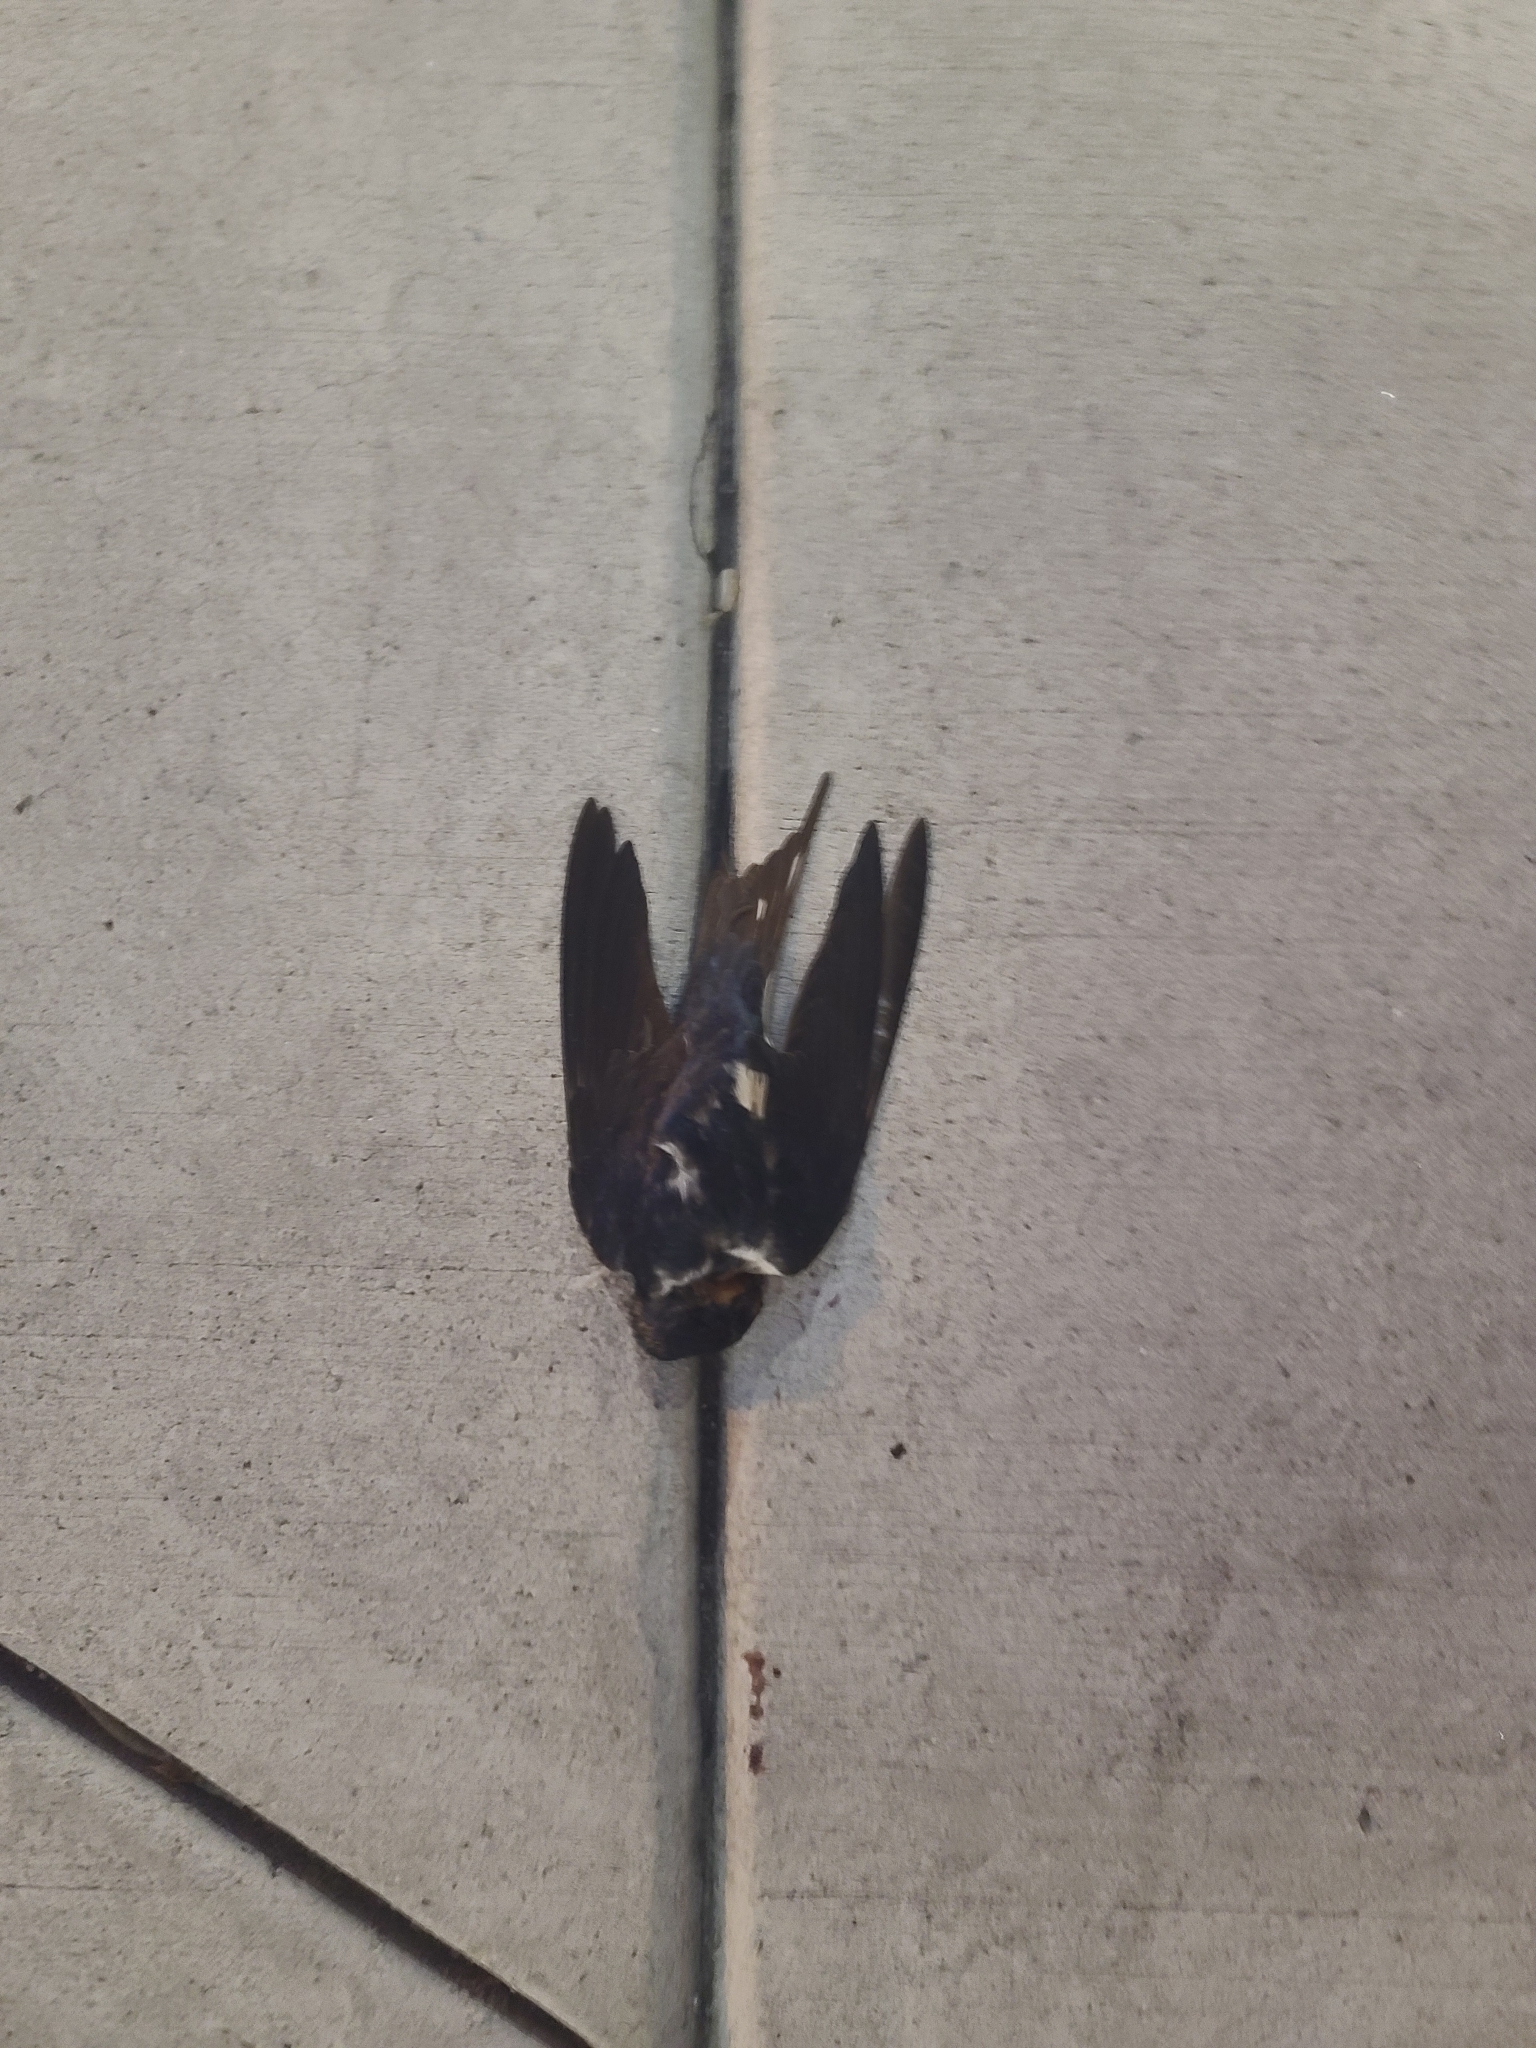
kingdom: Animalia
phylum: Chordata
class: Aves
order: Passeriformes
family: Hirundinidae
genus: Hirundo
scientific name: Hirundo rustica
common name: Barn swallow
